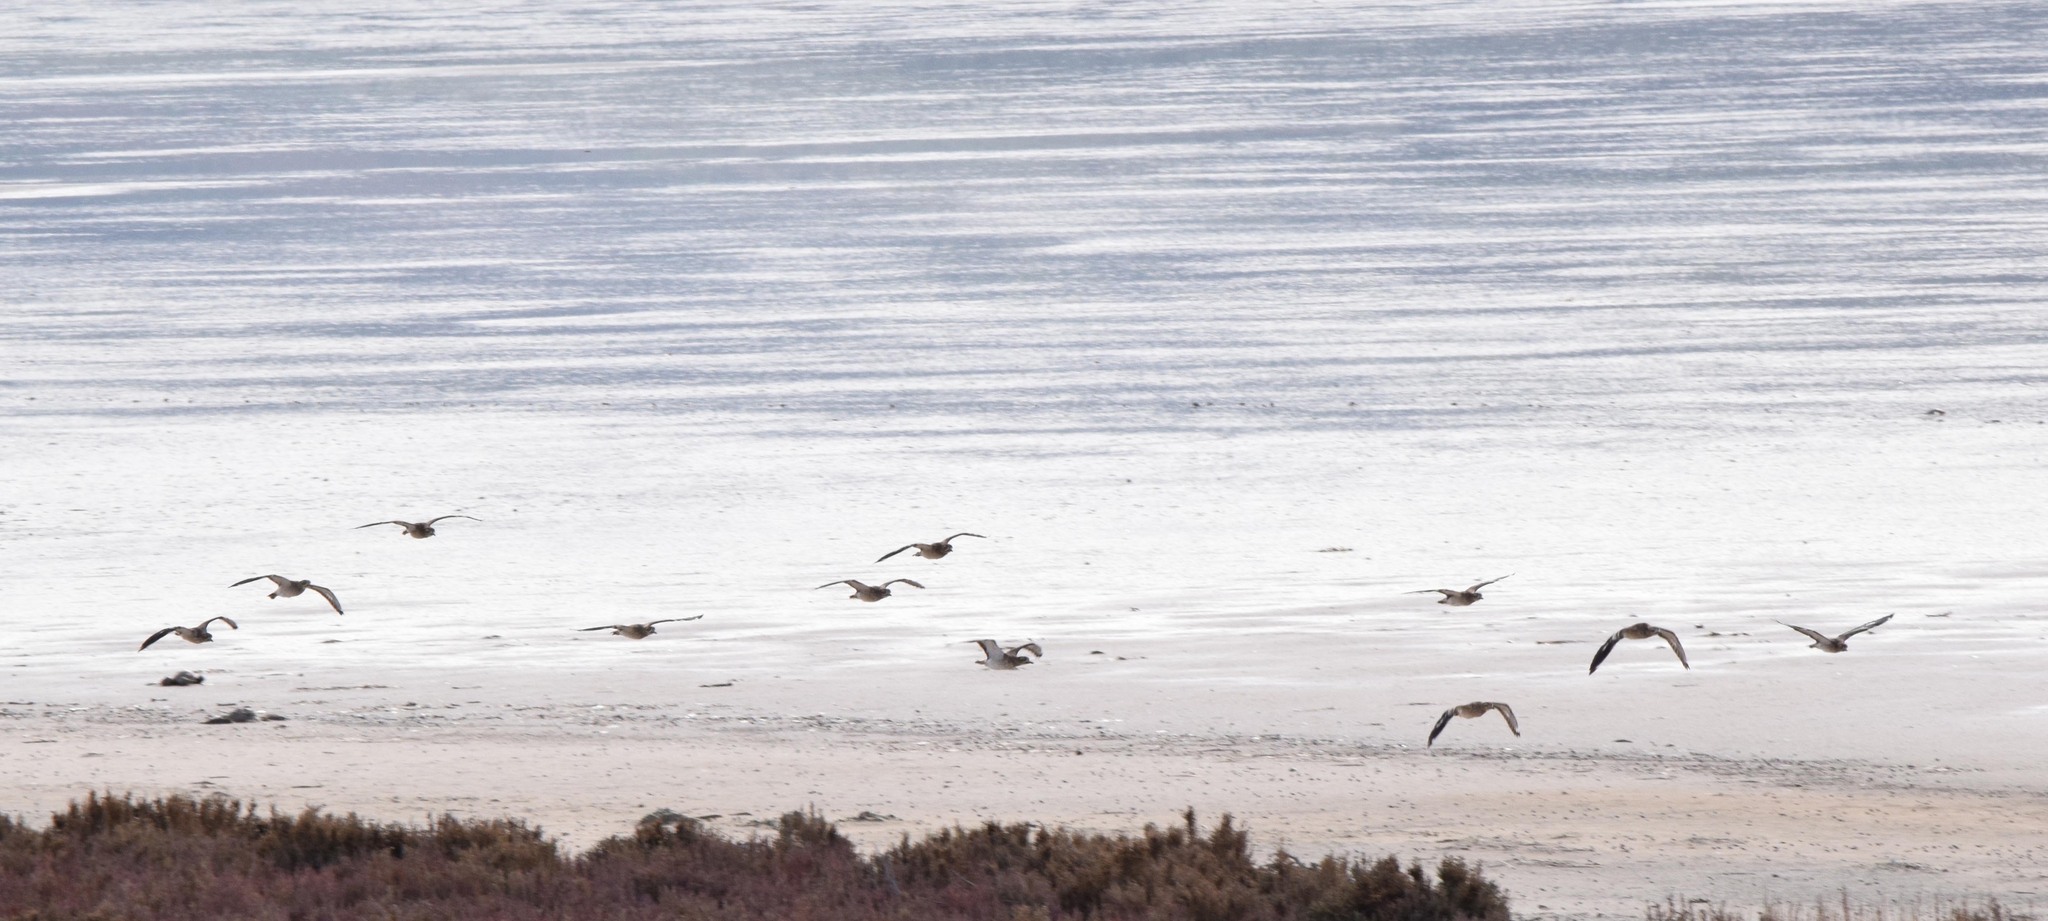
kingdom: Animalia
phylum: Chordata
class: Aves
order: Charadriiformes
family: Burhinidae
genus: Burhinus
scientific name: Burhinus oedicnemus
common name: Eurasian stone-curlew
